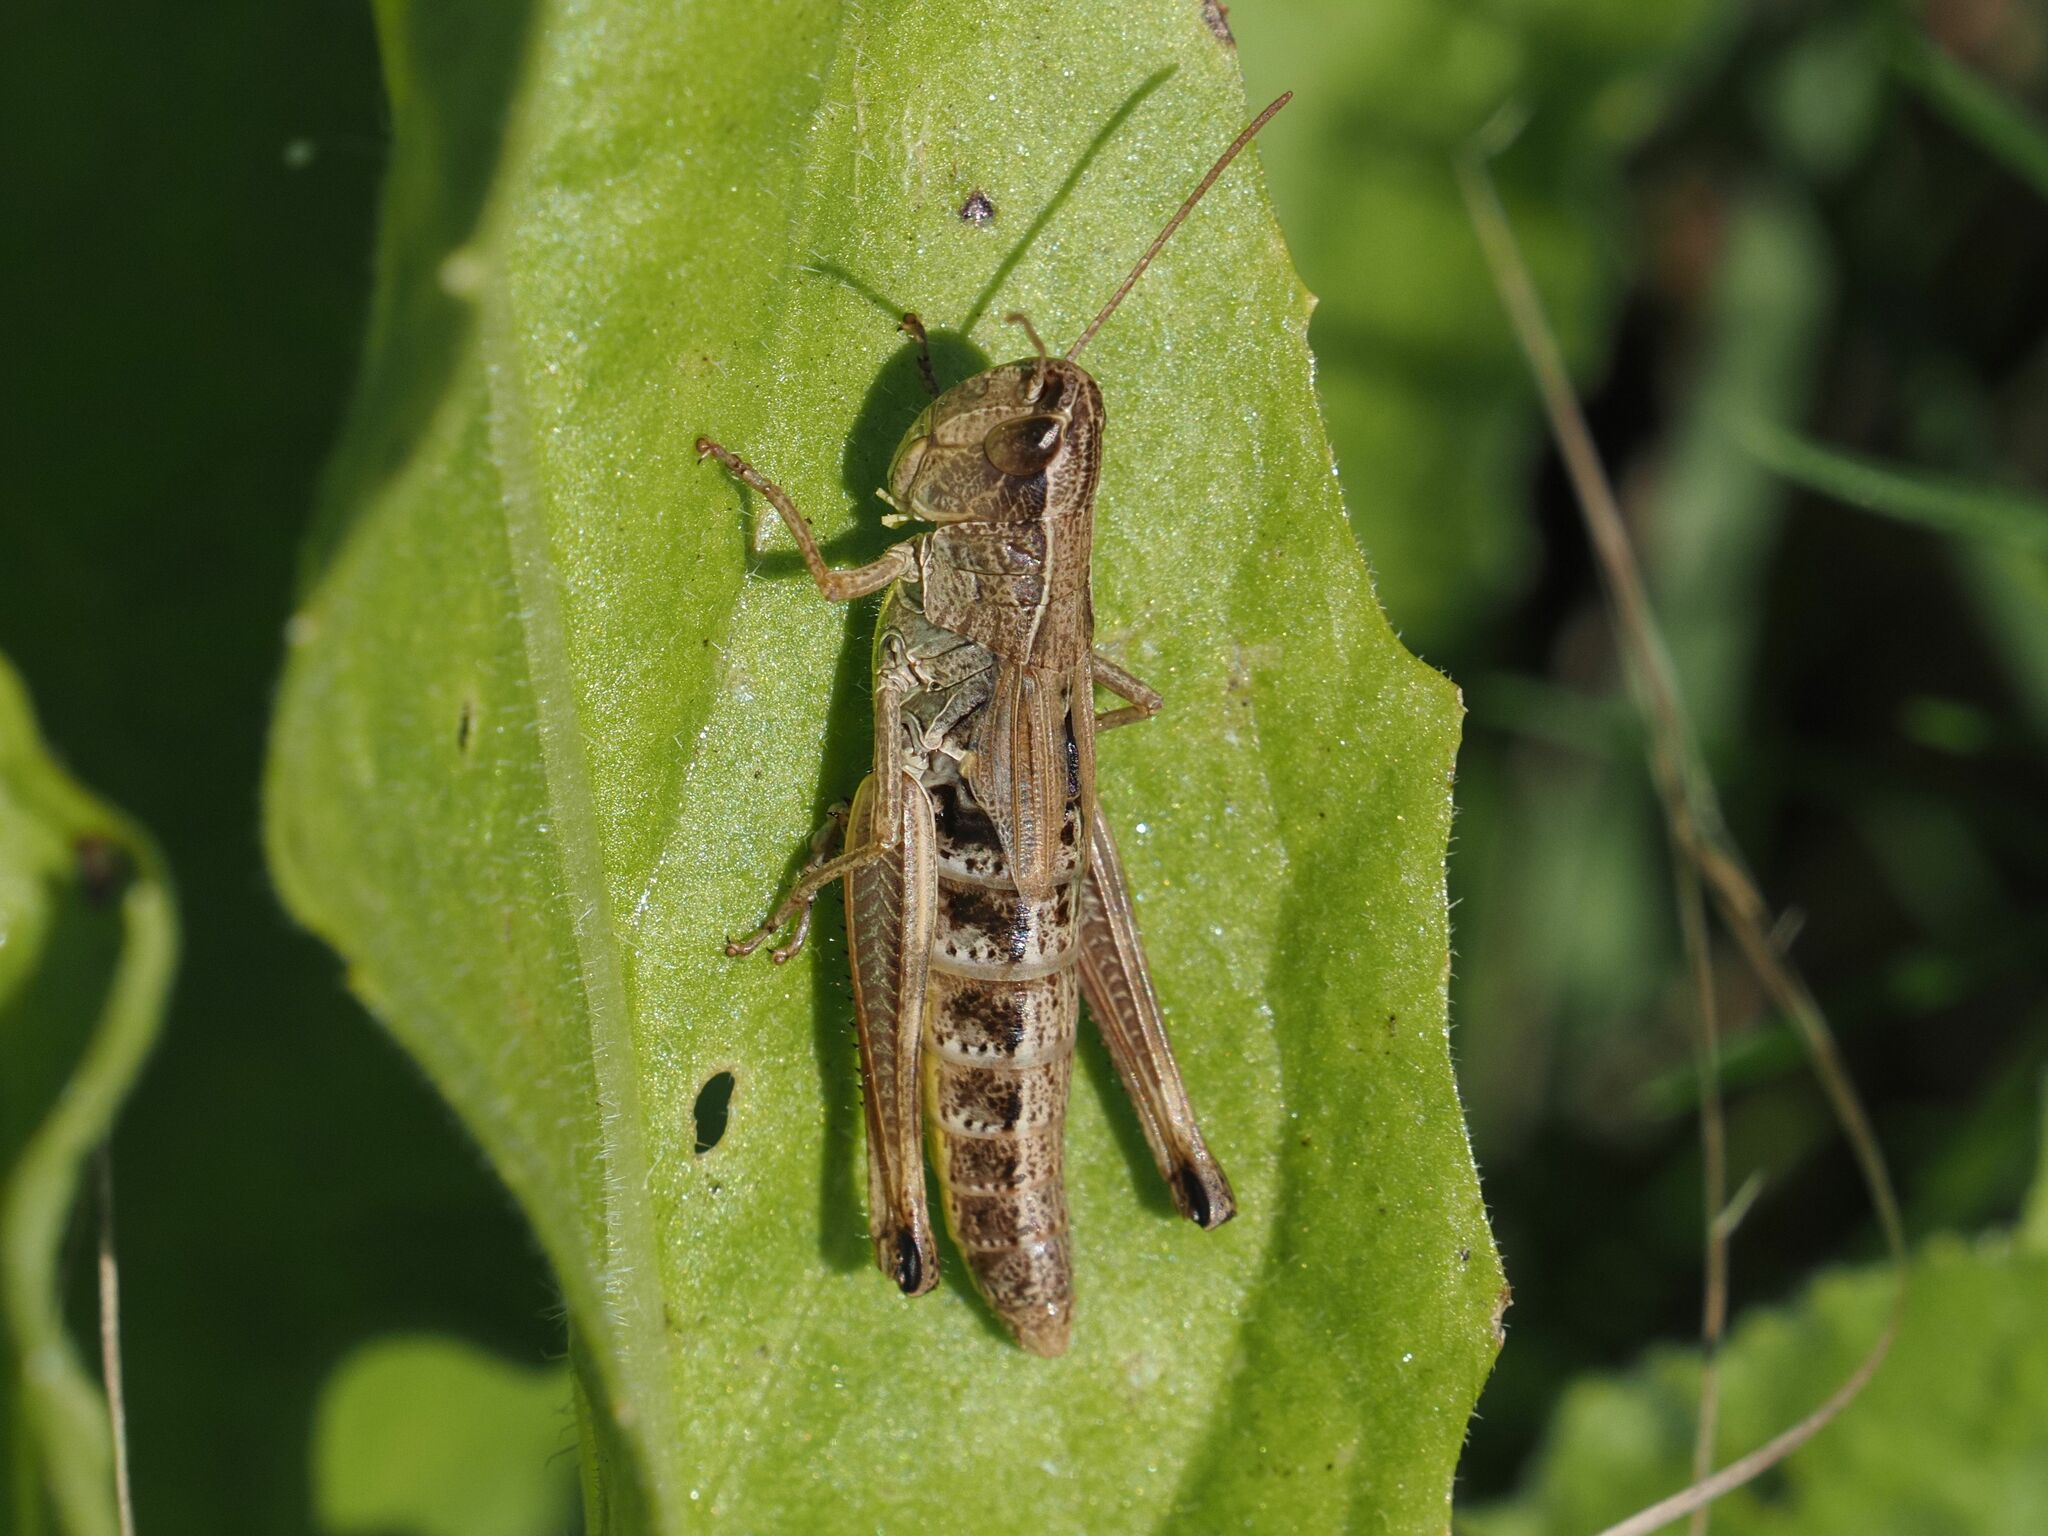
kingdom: Animalia
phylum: Arthropoda
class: Insecta
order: Orthoptera
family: Acrididae
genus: Pseudochorthippus
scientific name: Pseudochorthippus parallelus
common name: Meadow grasshopper
